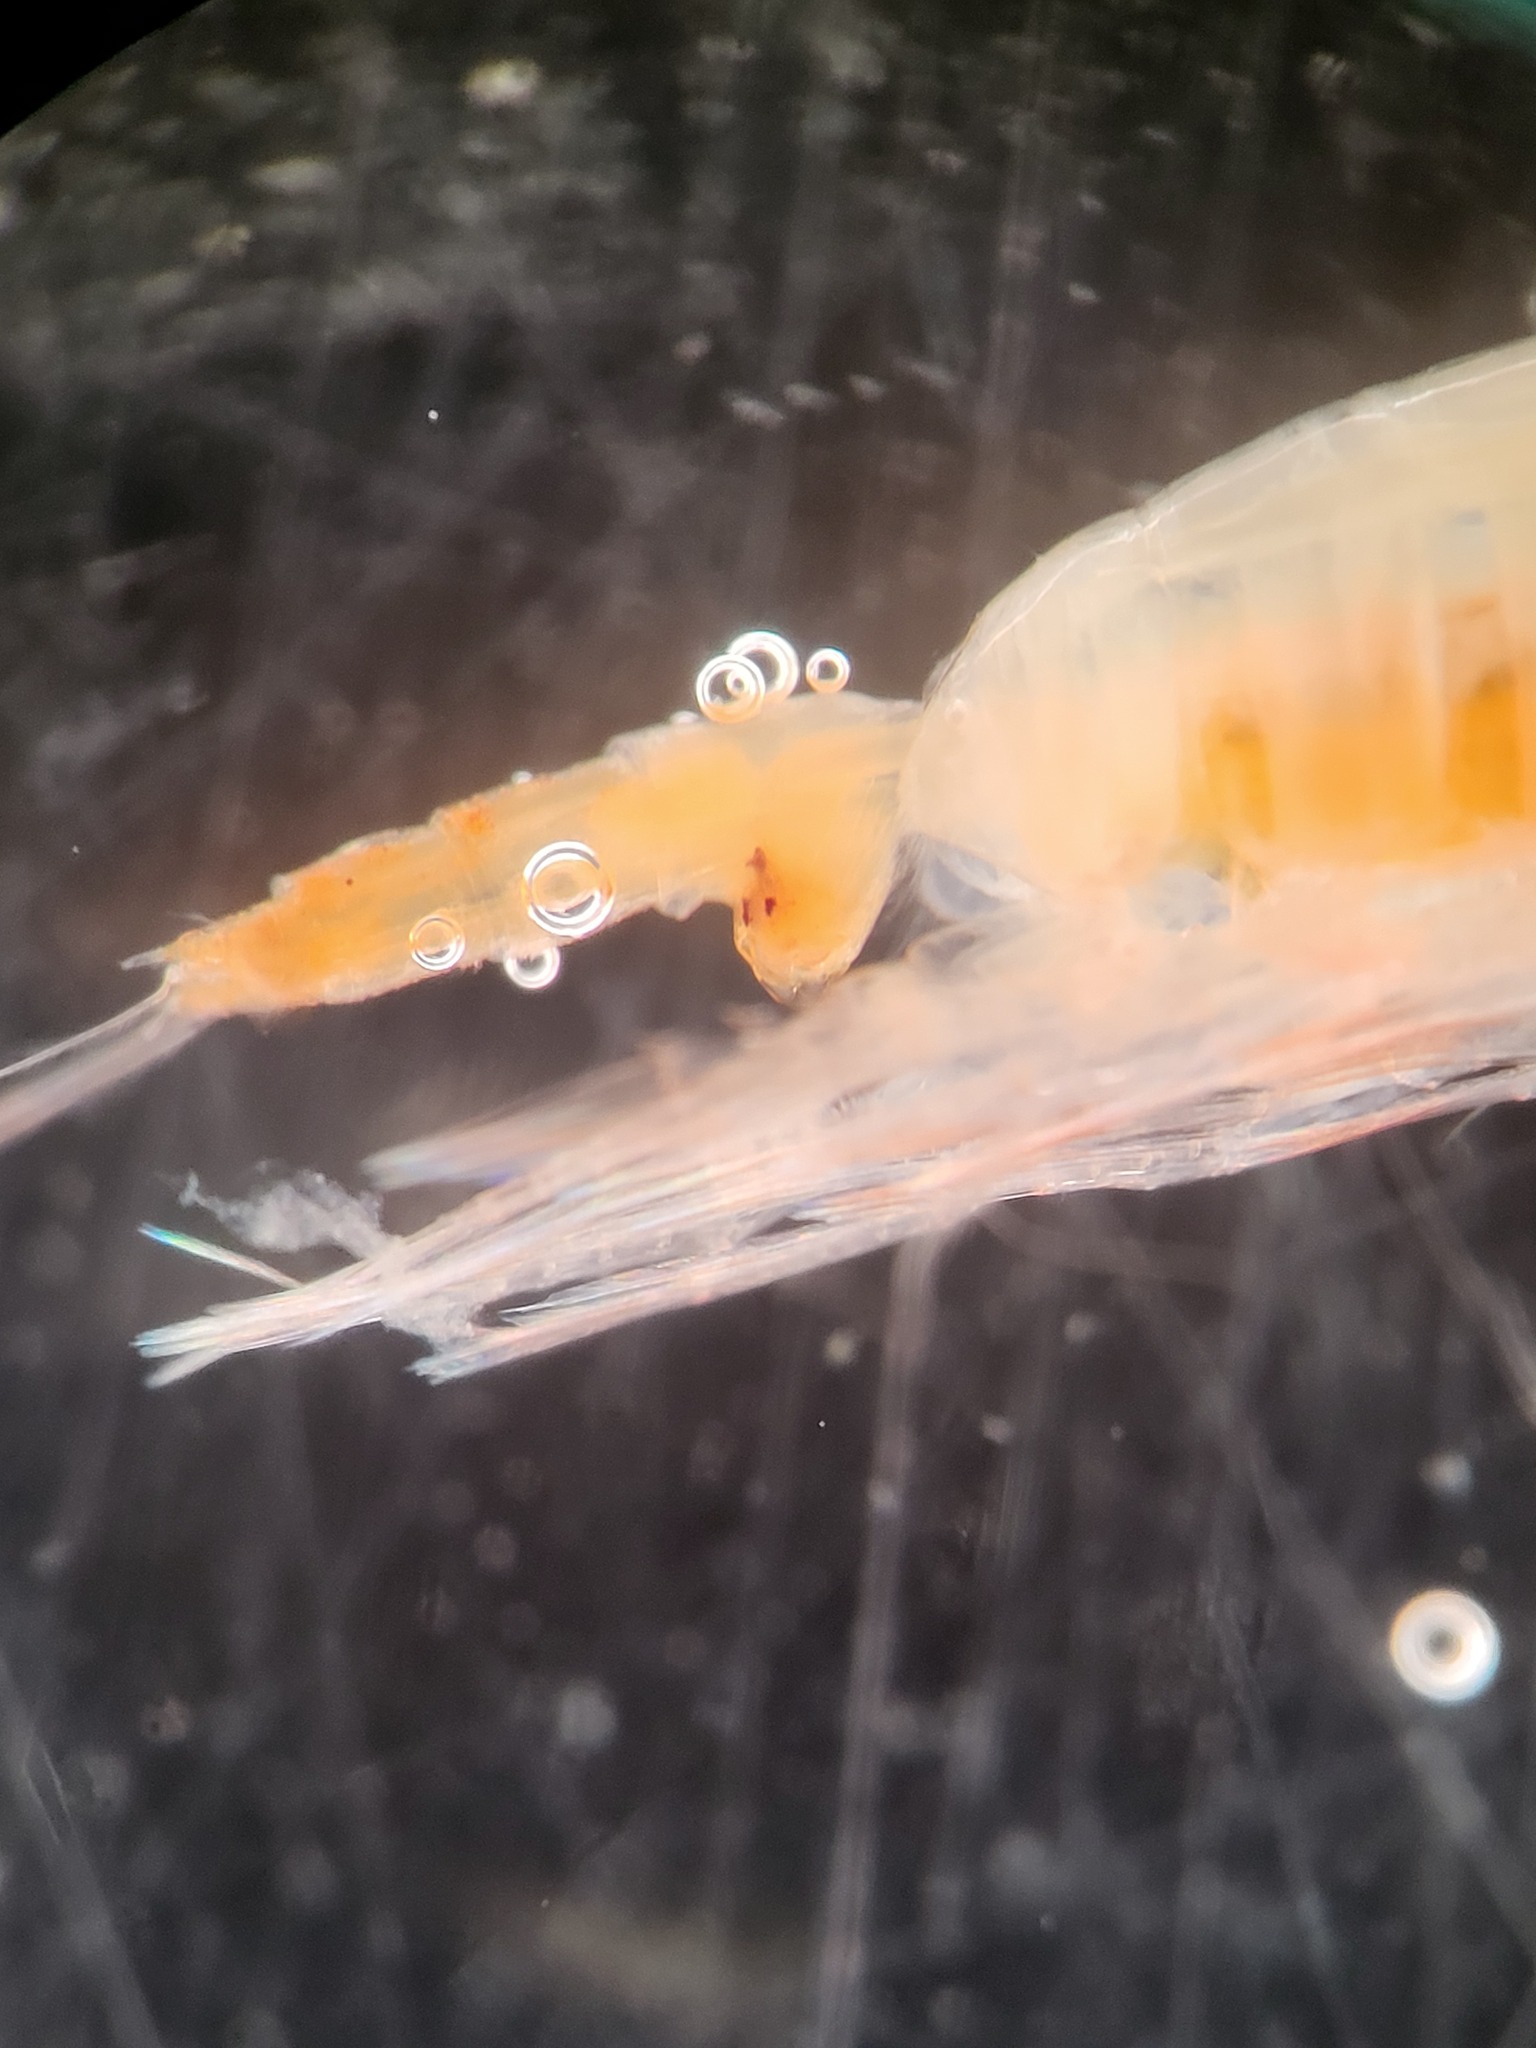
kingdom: Animalia
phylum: Arthropoda
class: Copepoda
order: Calanoida
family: Euchaetidae
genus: Paraeuchaeta
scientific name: Paraeuchaeta glacialis
